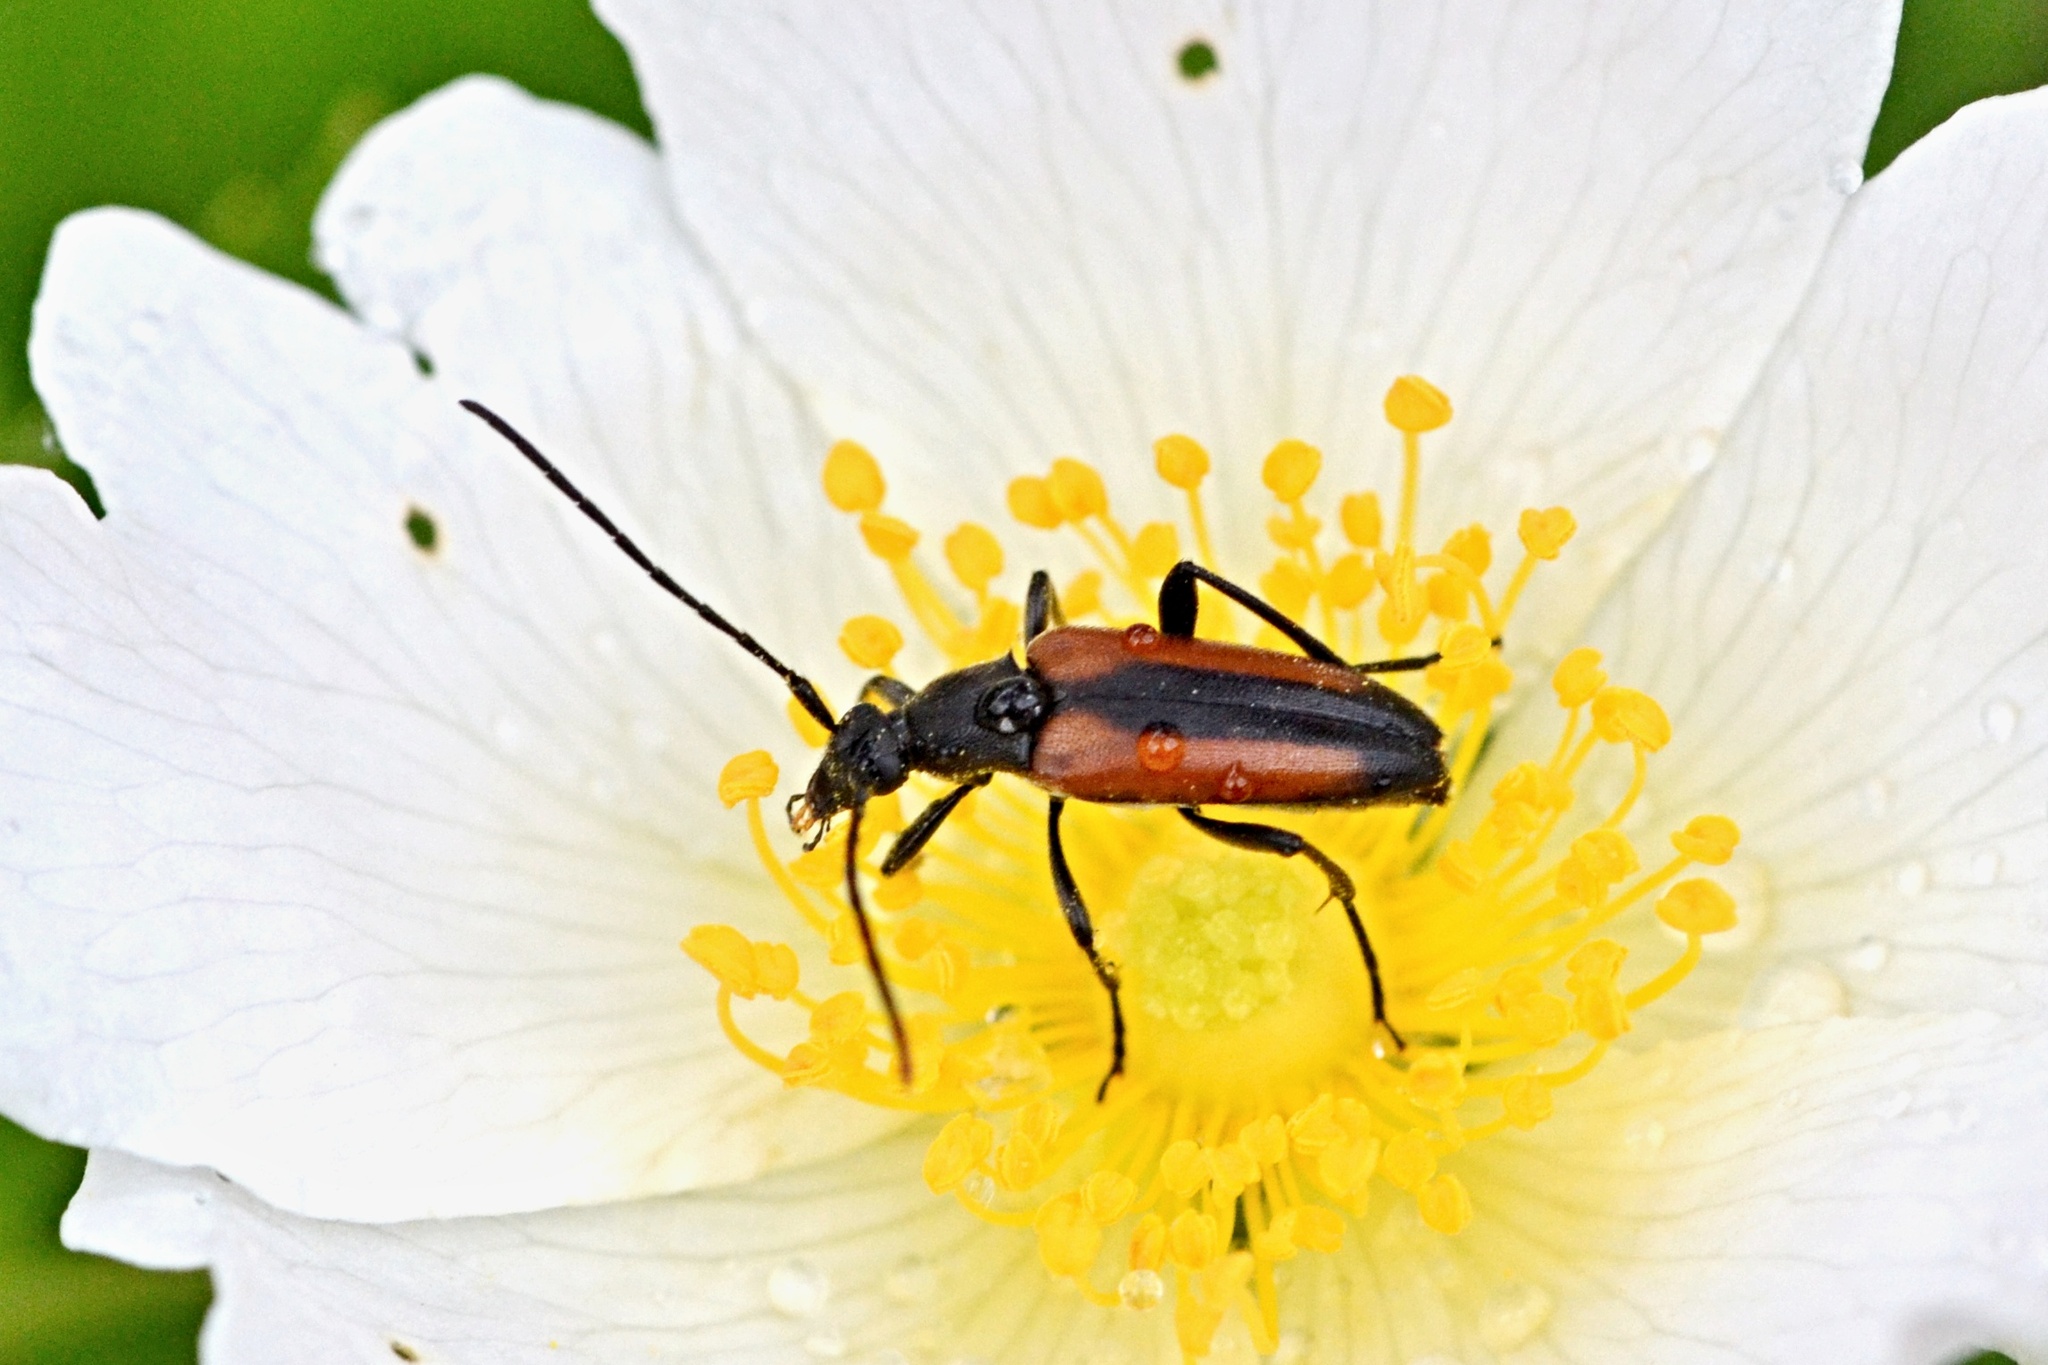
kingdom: Animalia
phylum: Arthropoda
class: Insecta
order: Coleoptera
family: Cerambycidae
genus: Stenurella
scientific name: Stenurella melanura
